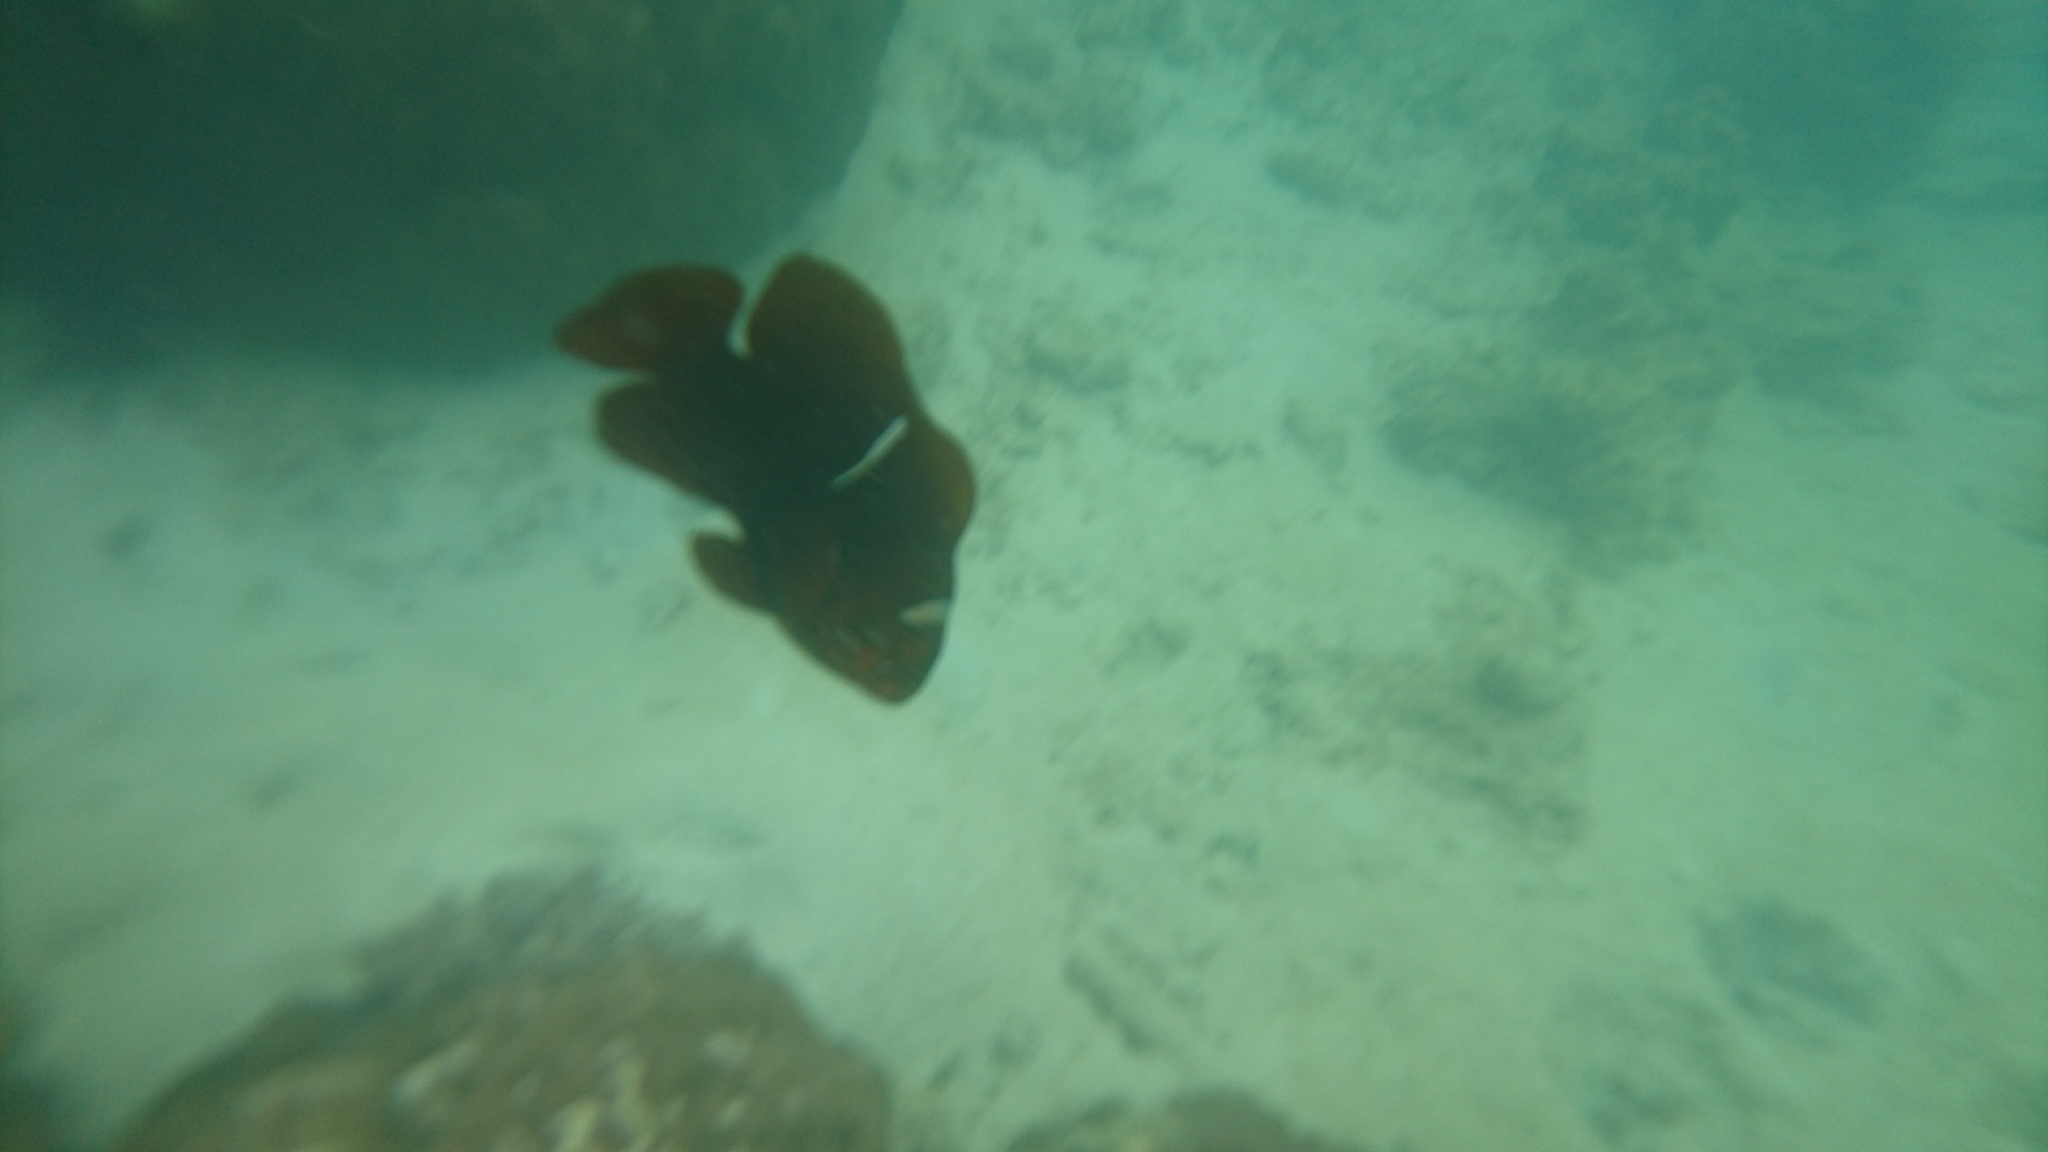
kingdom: Animalia
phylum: Chordata
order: Perciformes
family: Pomacentridae
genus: Premnas
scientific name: Premnas biaculeatus
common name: Spinecheek anemonefish
